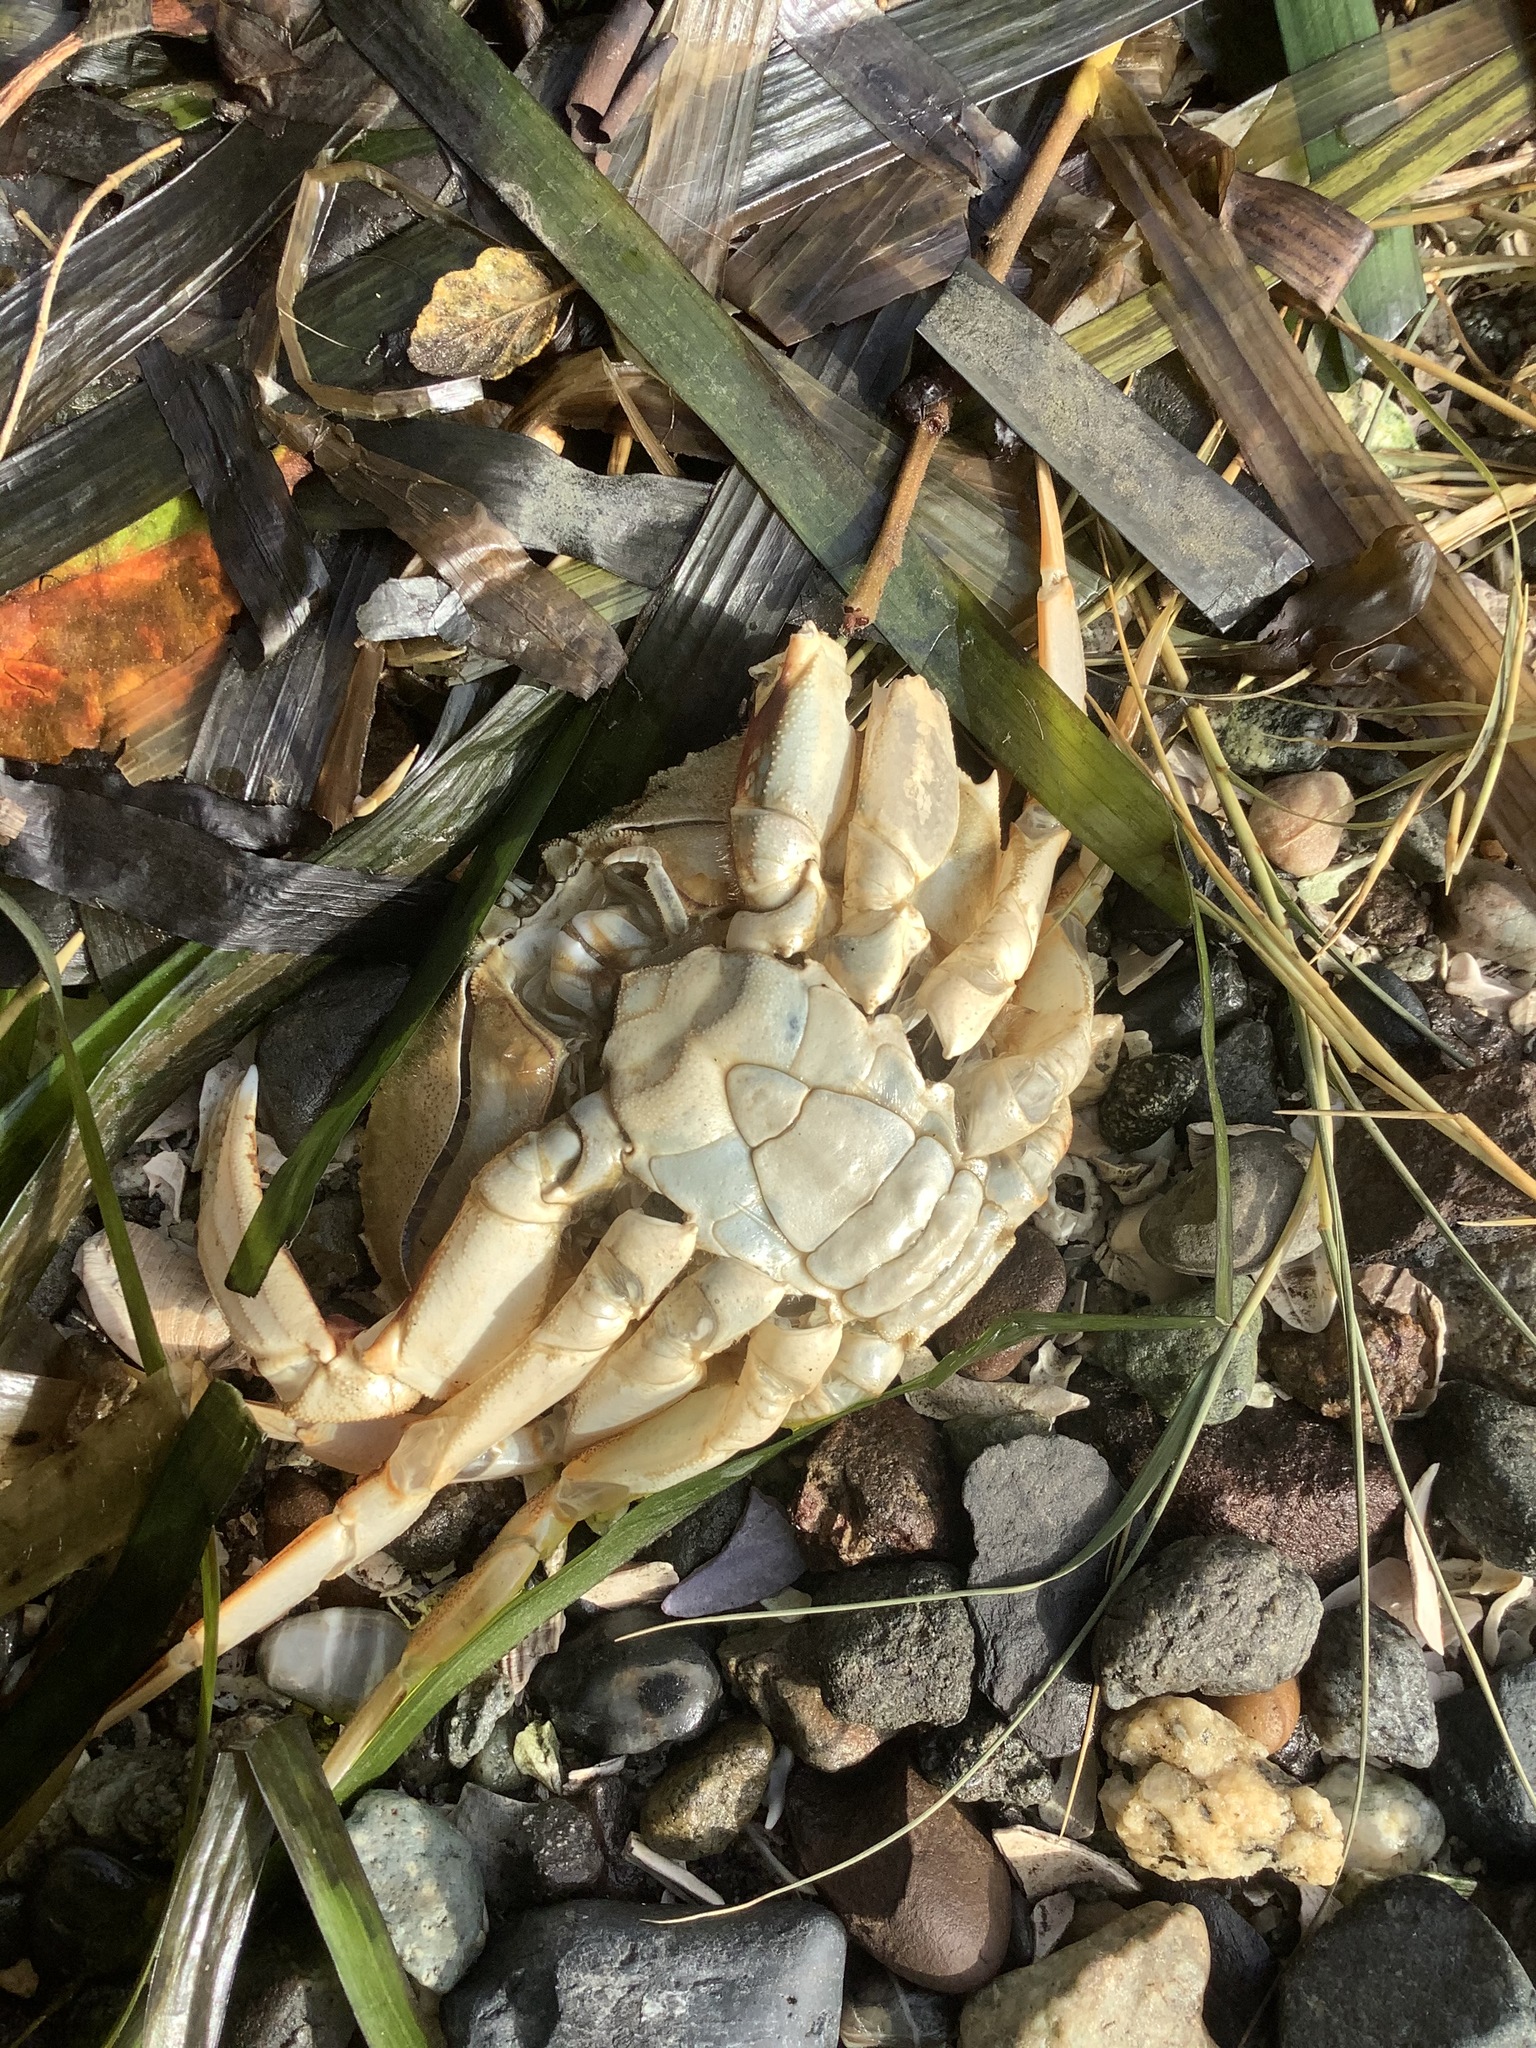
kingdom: Animalia
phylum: Arthropoda
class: Malacostraca
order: Decapoda
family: Cancridae
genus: Metacarcinus
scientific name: Metacarcinus magister
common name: Californian crab
